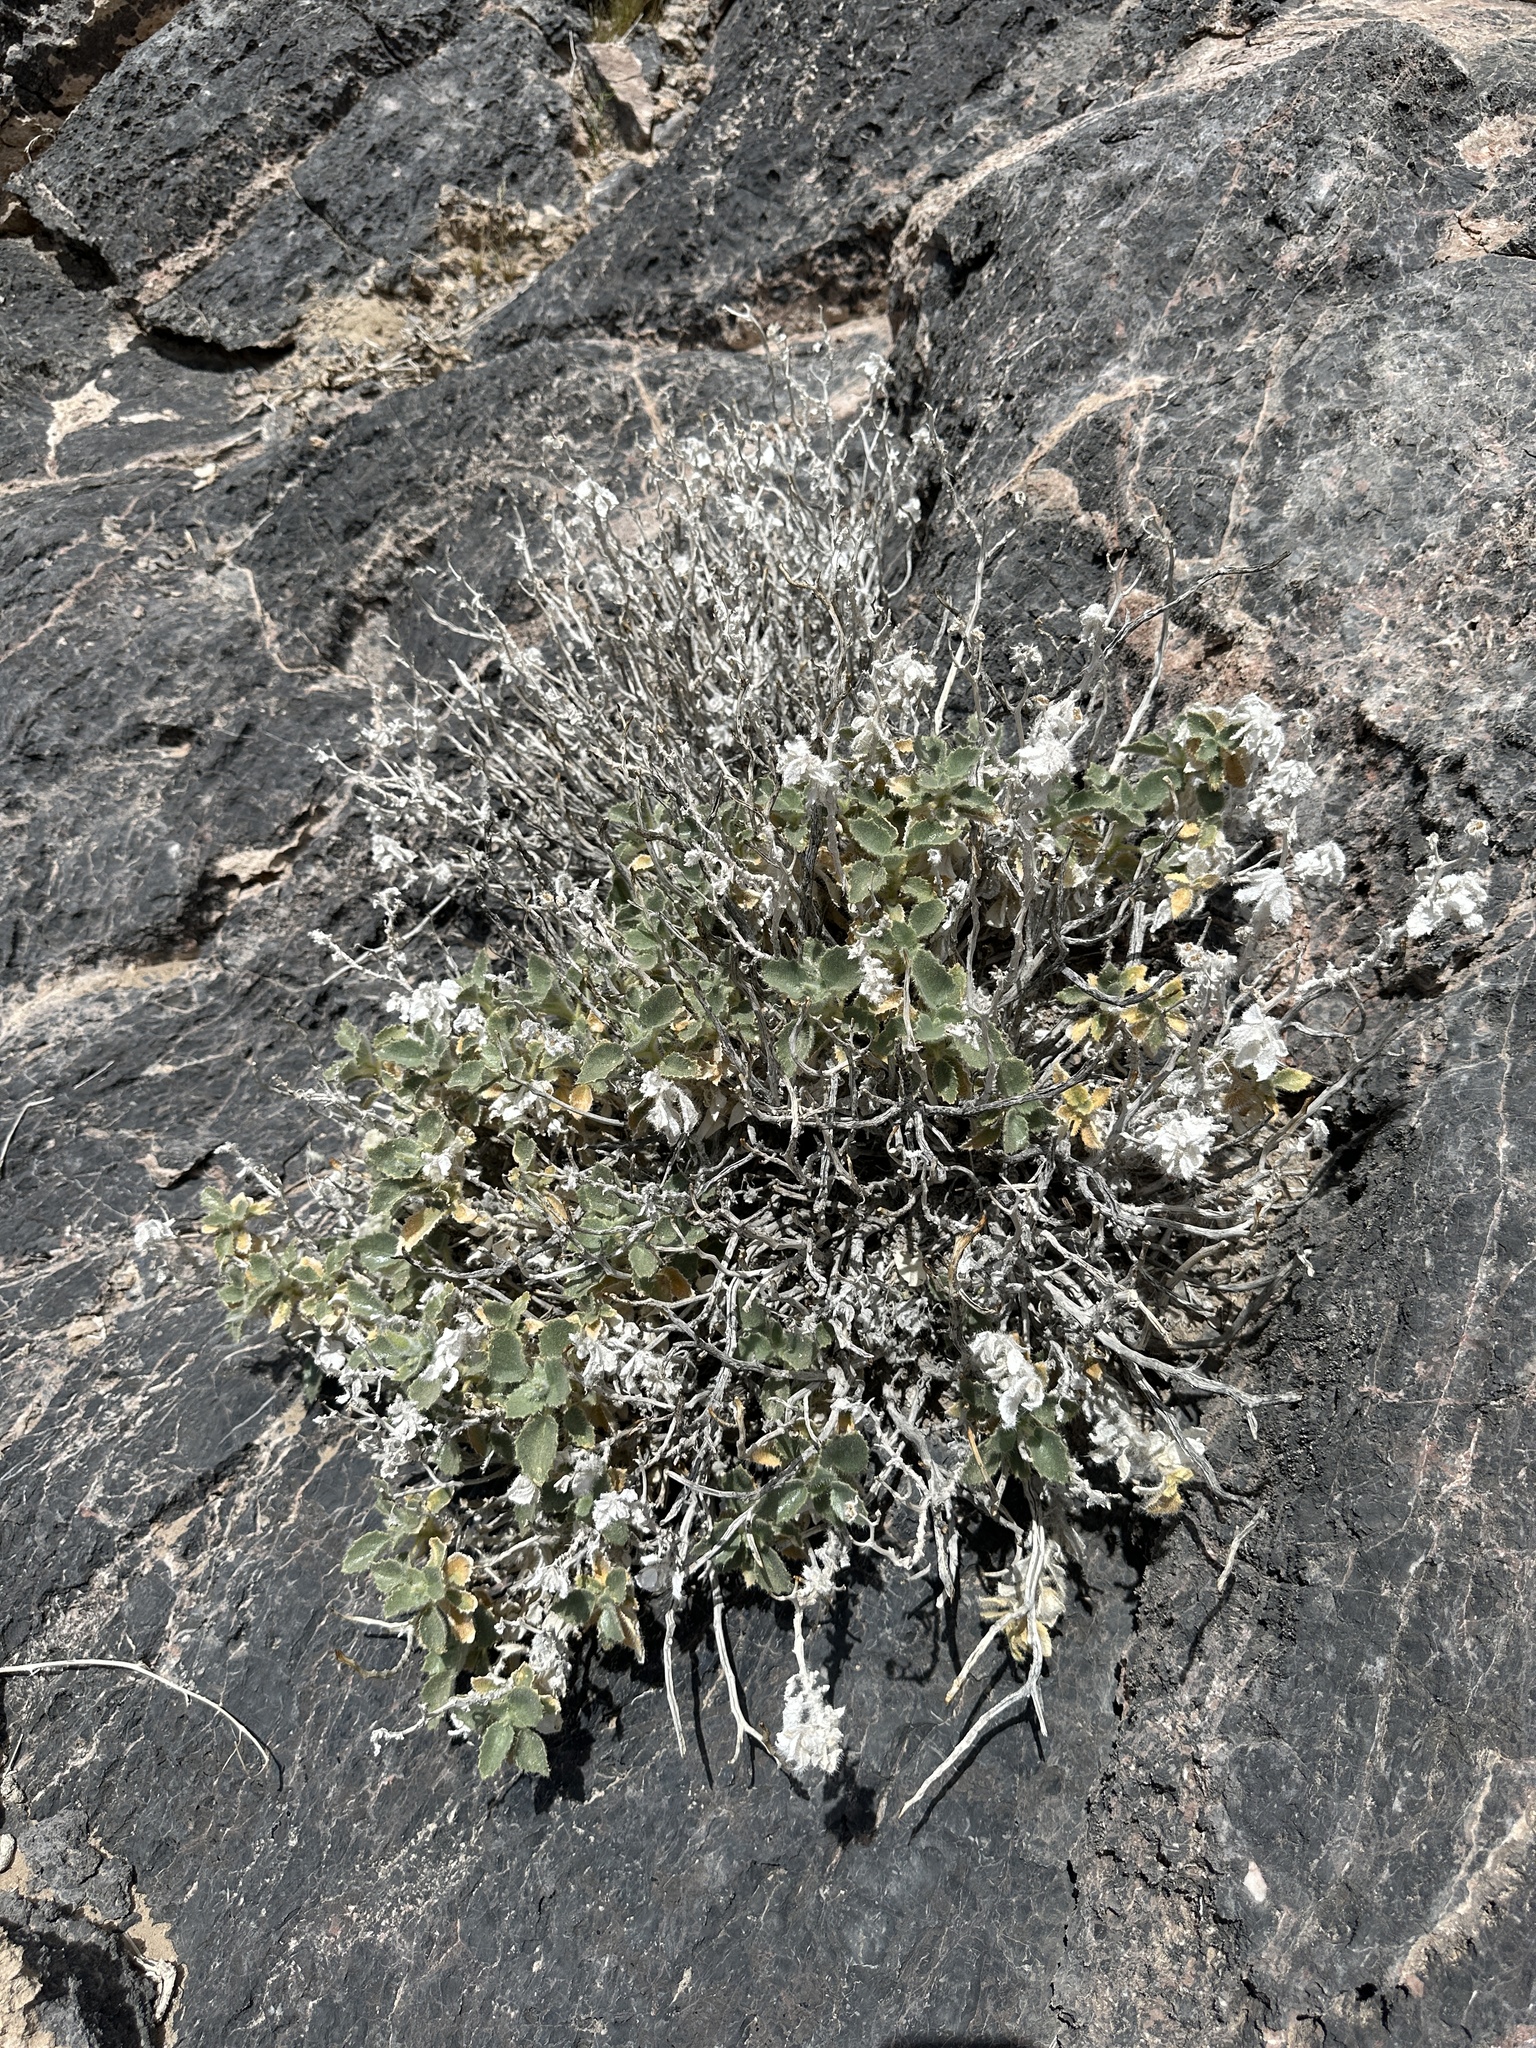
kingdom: Plantae
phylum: Tracheophyta
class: Magnoliopsida
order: Cornales
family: Loasaceae
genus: Eucnide
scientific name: Eucnide urens
